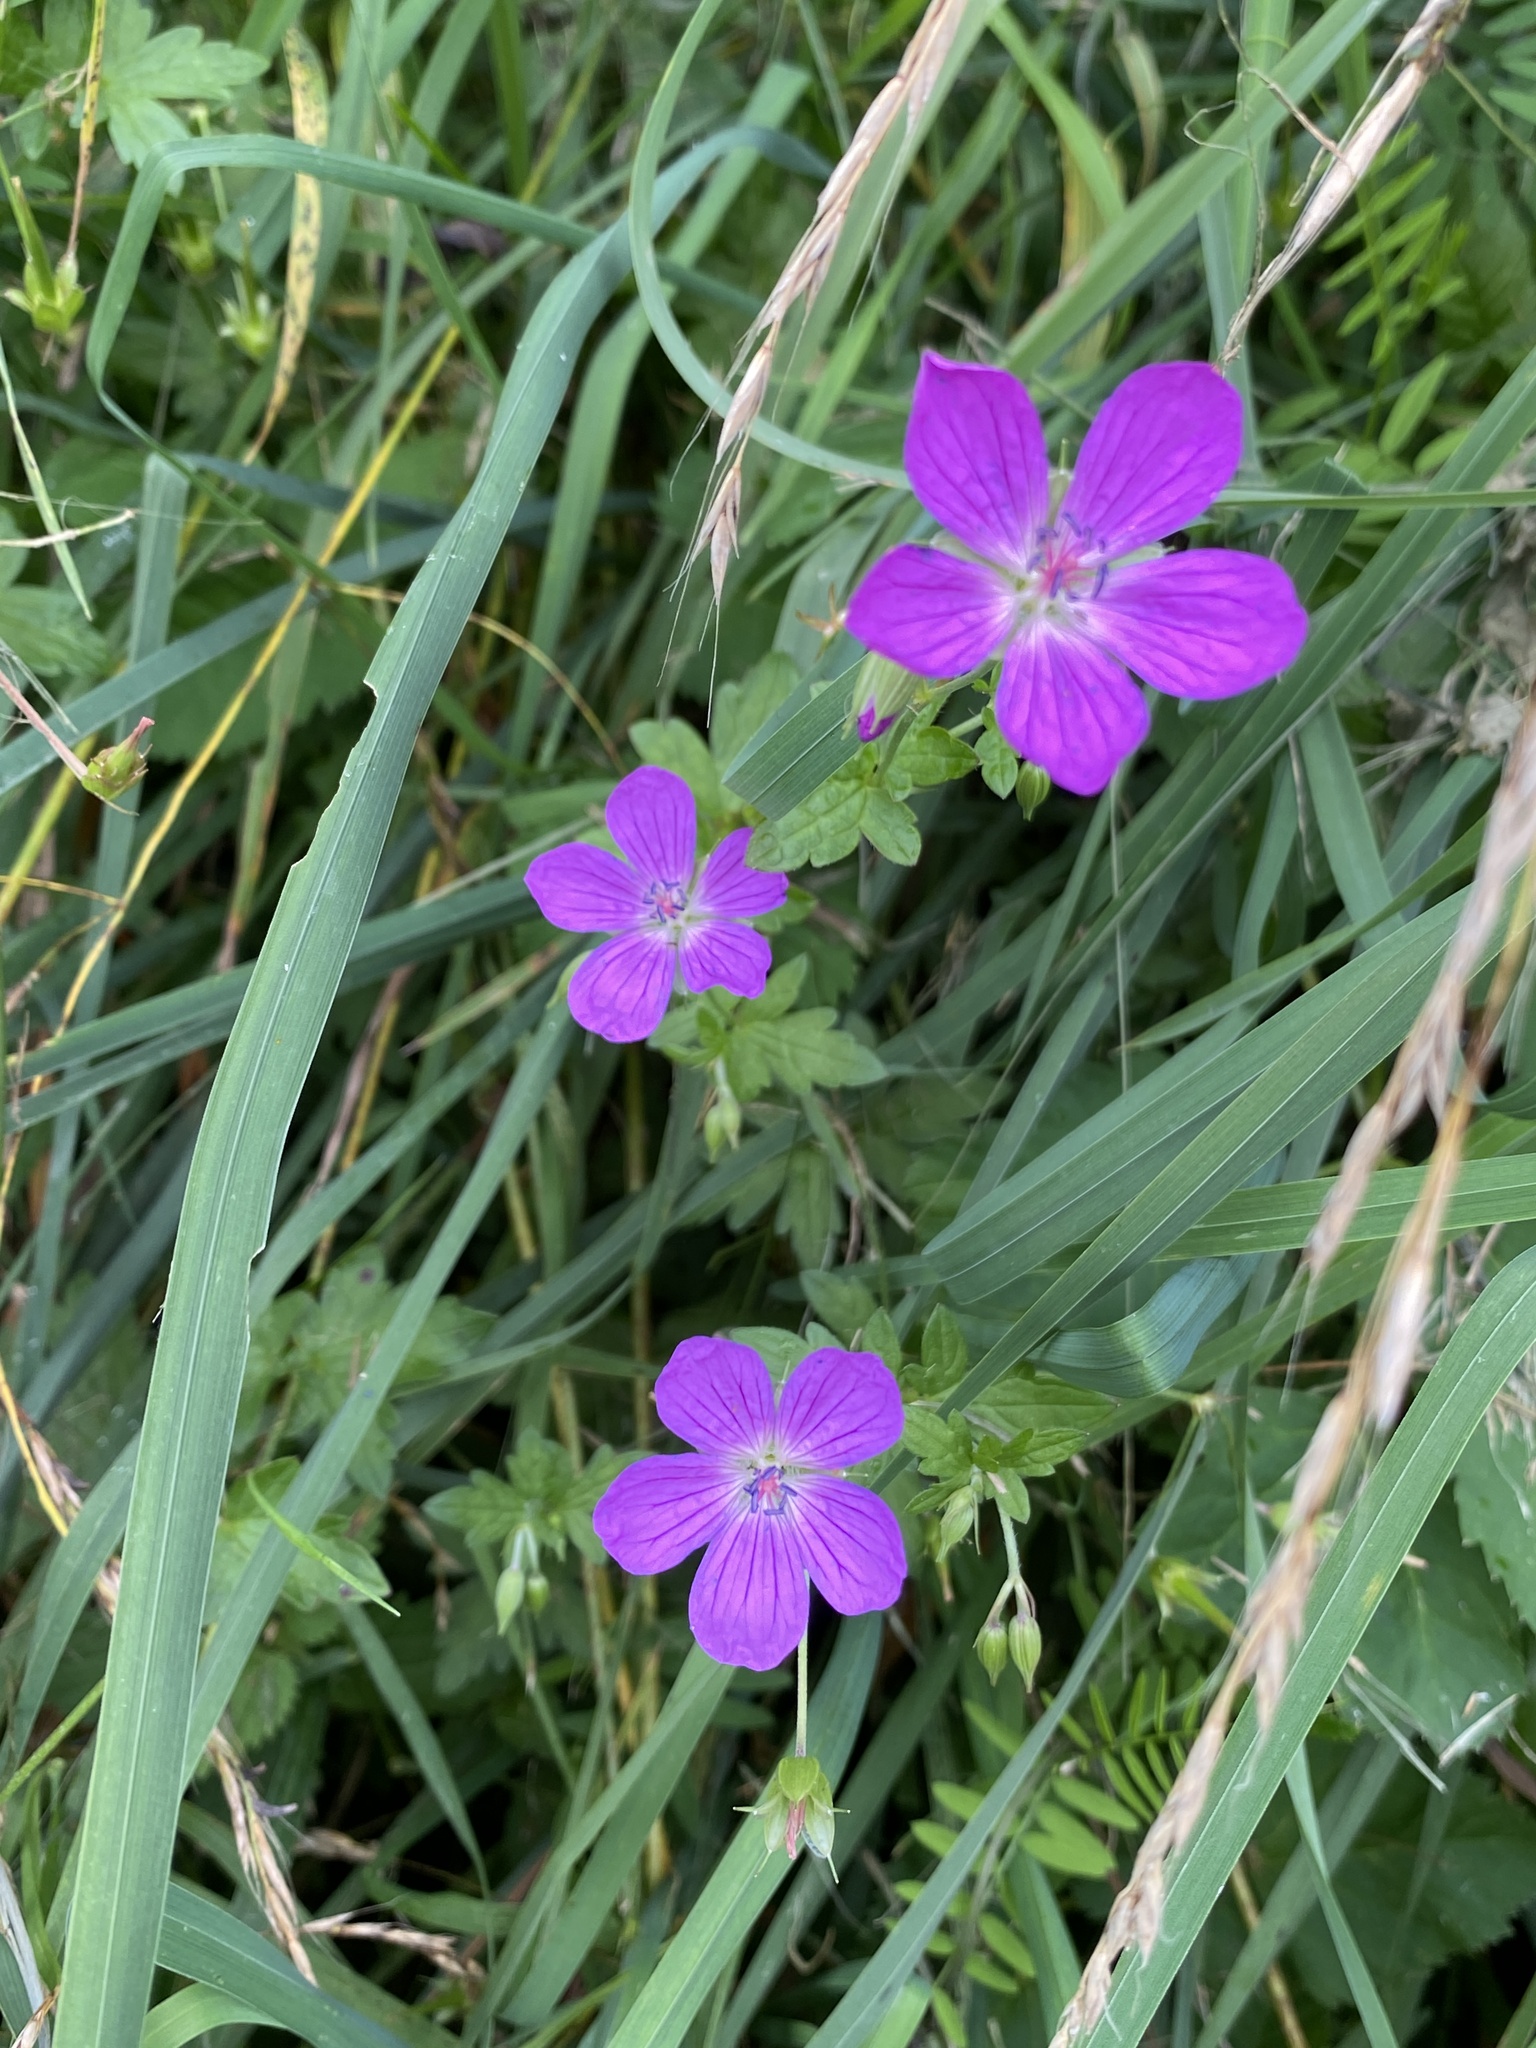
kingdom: Plantae
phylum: Tracheophyta
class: Magnoliopsida
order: Geraniales
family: Geraniaceae
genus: Geranium
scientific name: Geranium palustre
